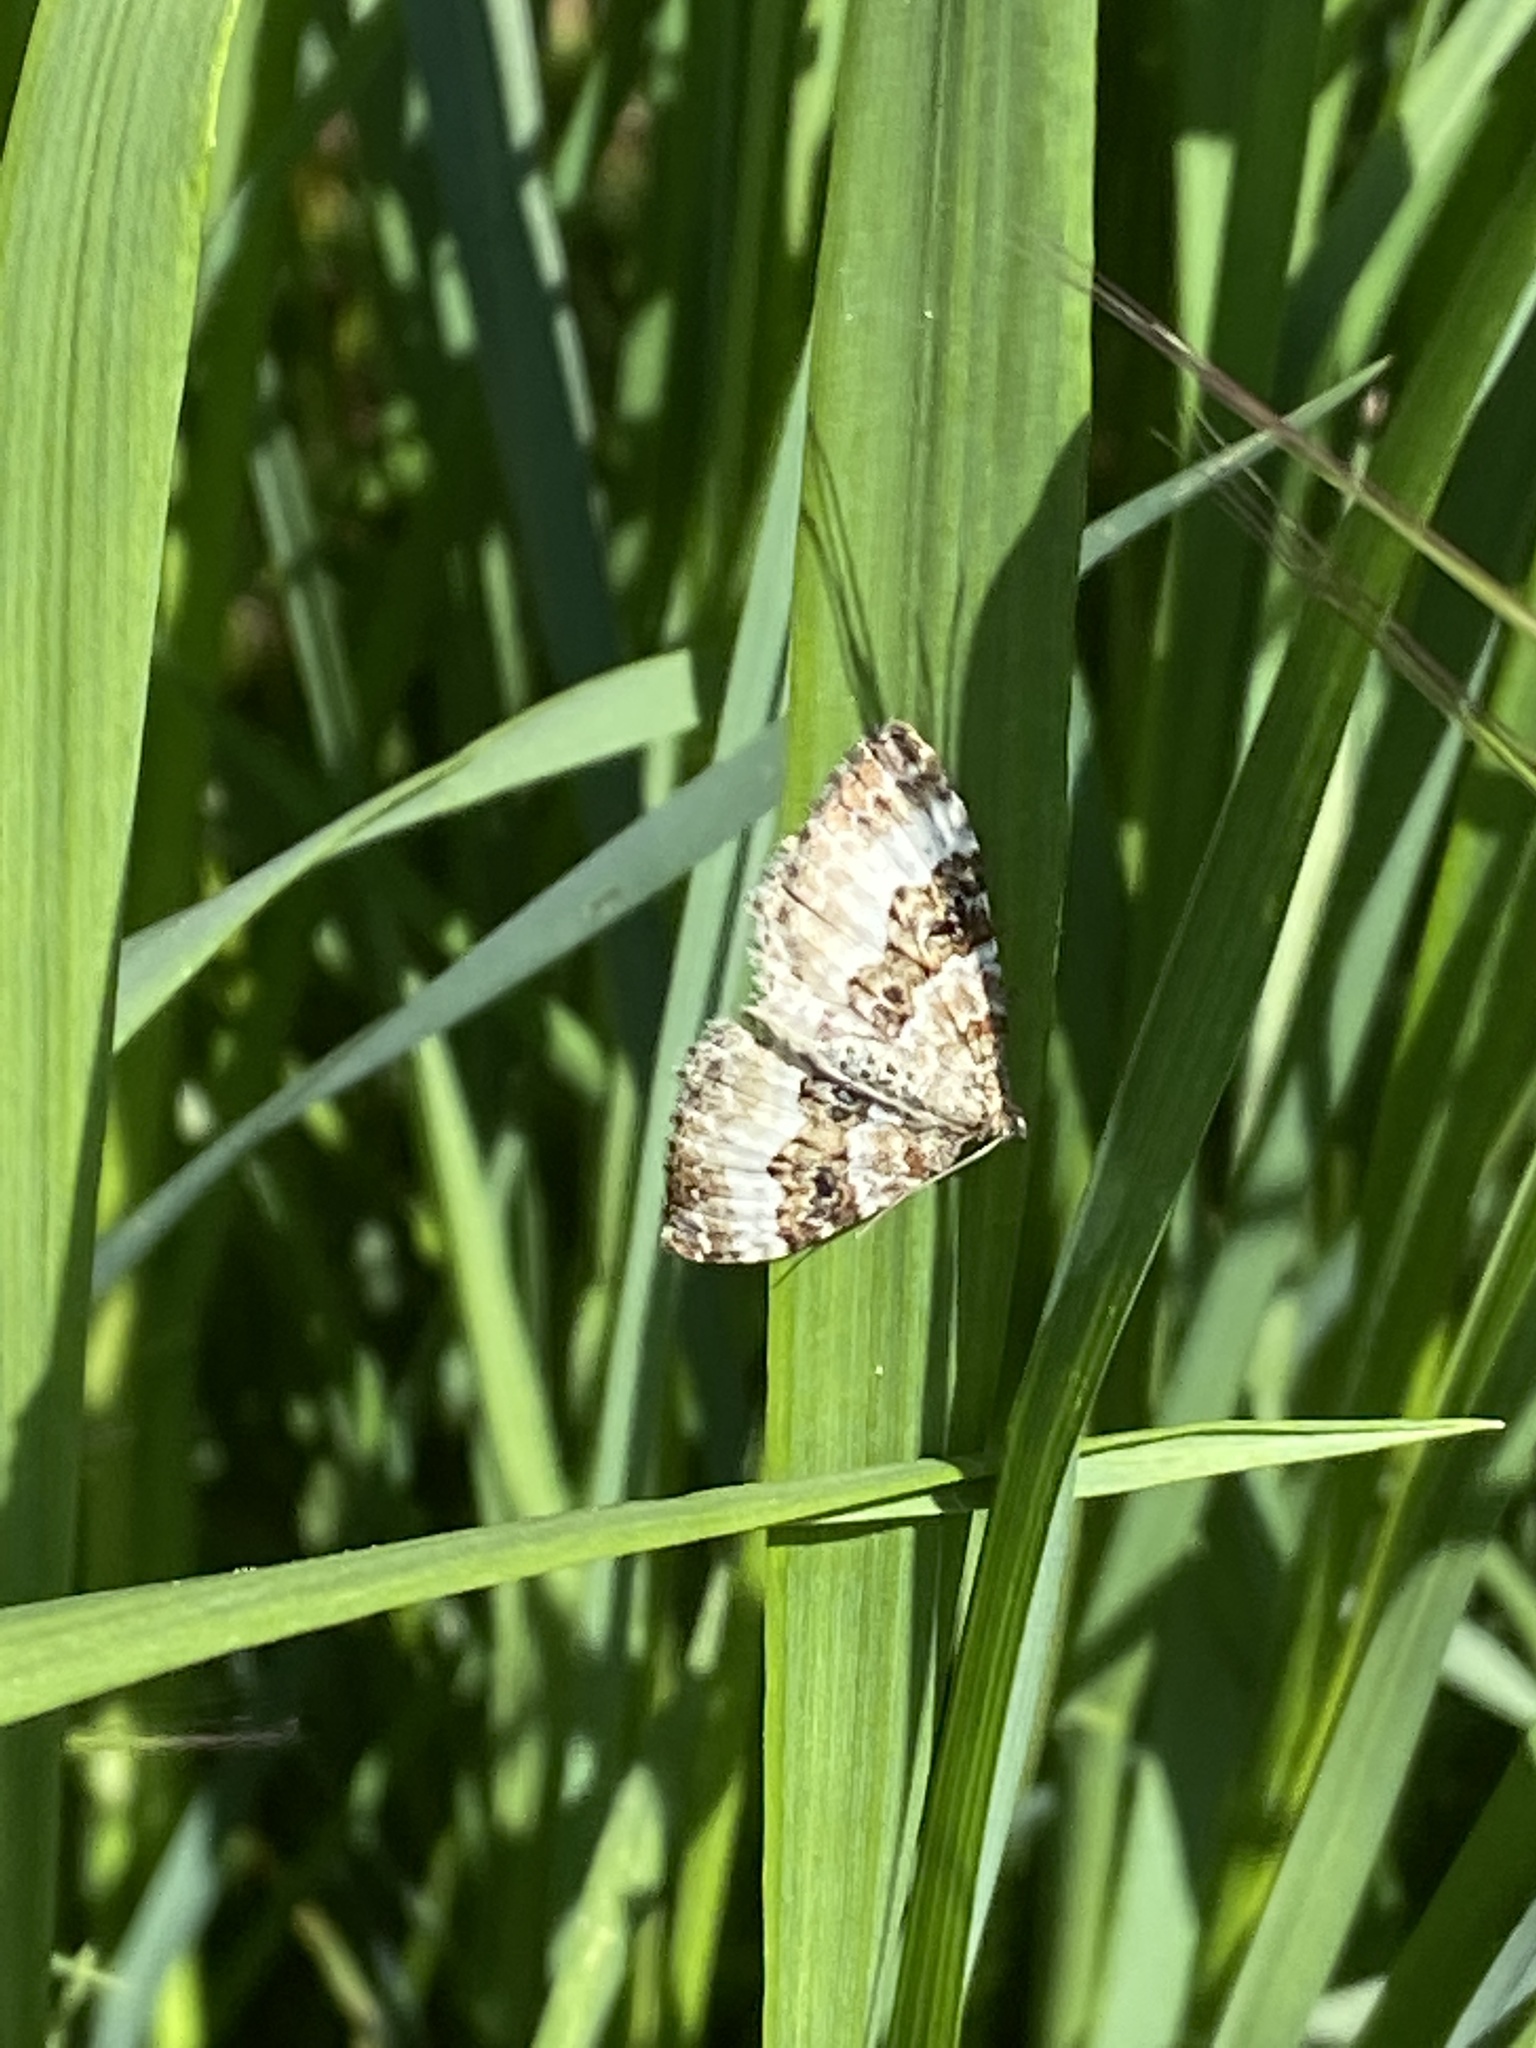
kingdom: Animalia
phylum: Arthropoda
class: Insecta
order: Lepidoptera
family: Geometridae
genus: Epirrhoe
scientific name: Epirrhoe alternata
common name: Common carpet
